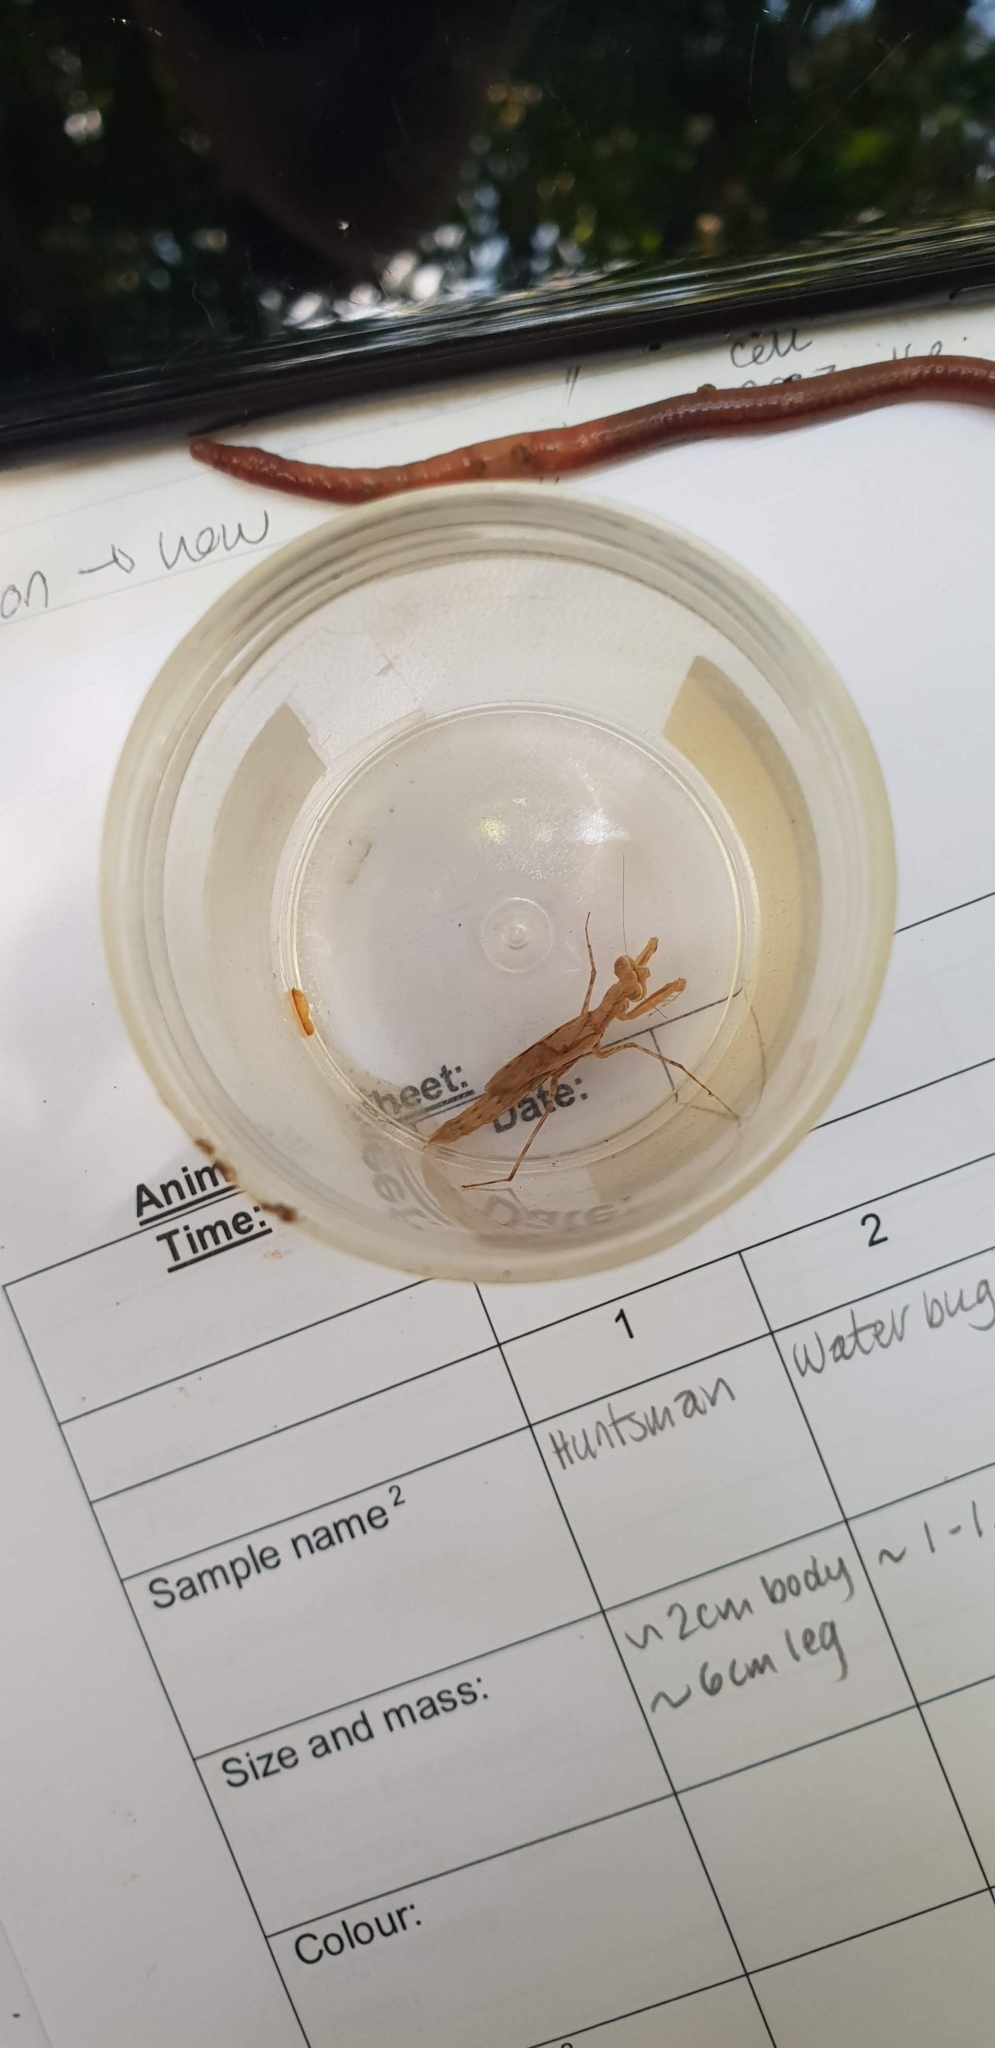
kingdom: Animalia
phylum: Arthropoda
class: Insecta
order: Mantodea
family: Nanomantidae
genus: Ima
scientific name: Ima fusca
